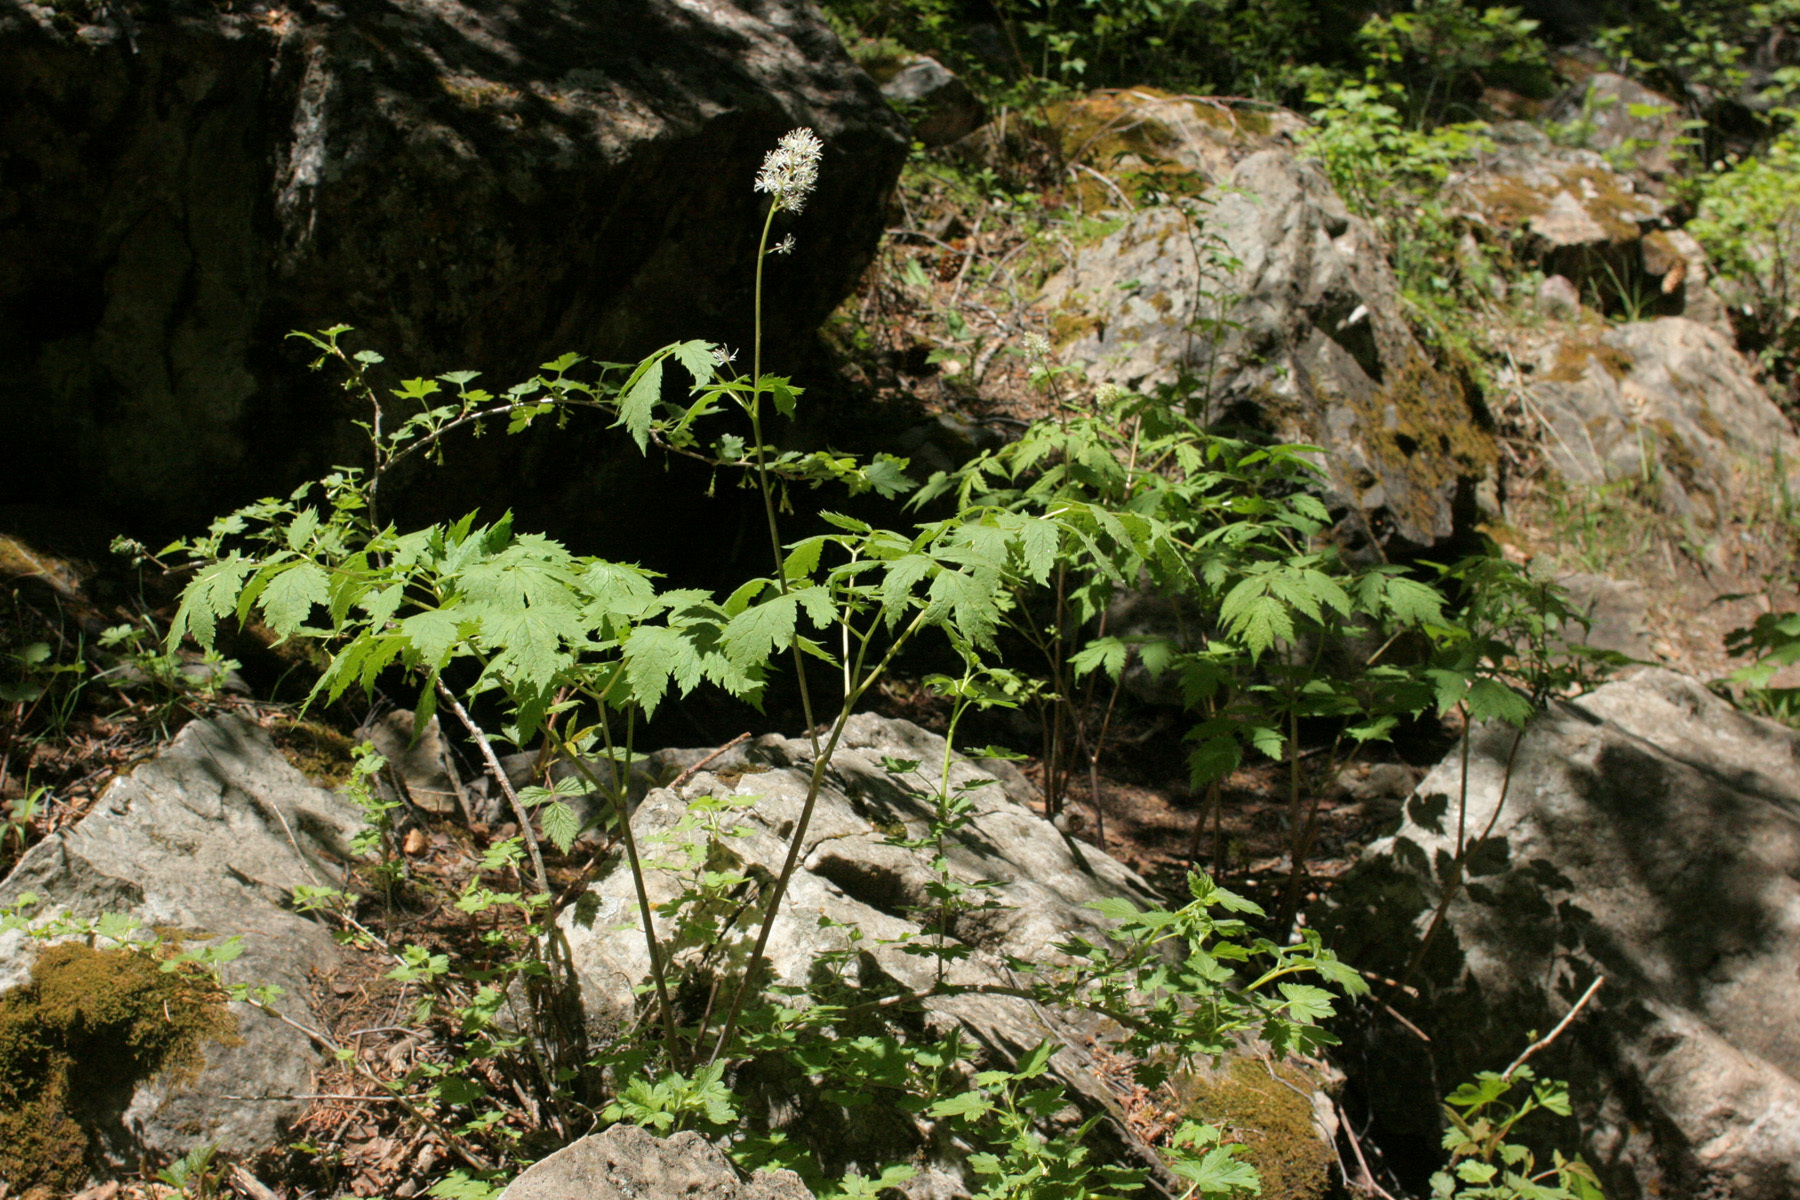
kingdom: Plantae
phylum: Tracheophyta
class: Magnoliopsida
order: Ranunculales
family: Ranunculaceae
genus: Actaea
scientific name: Actaea rubra
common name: Red baneberry
